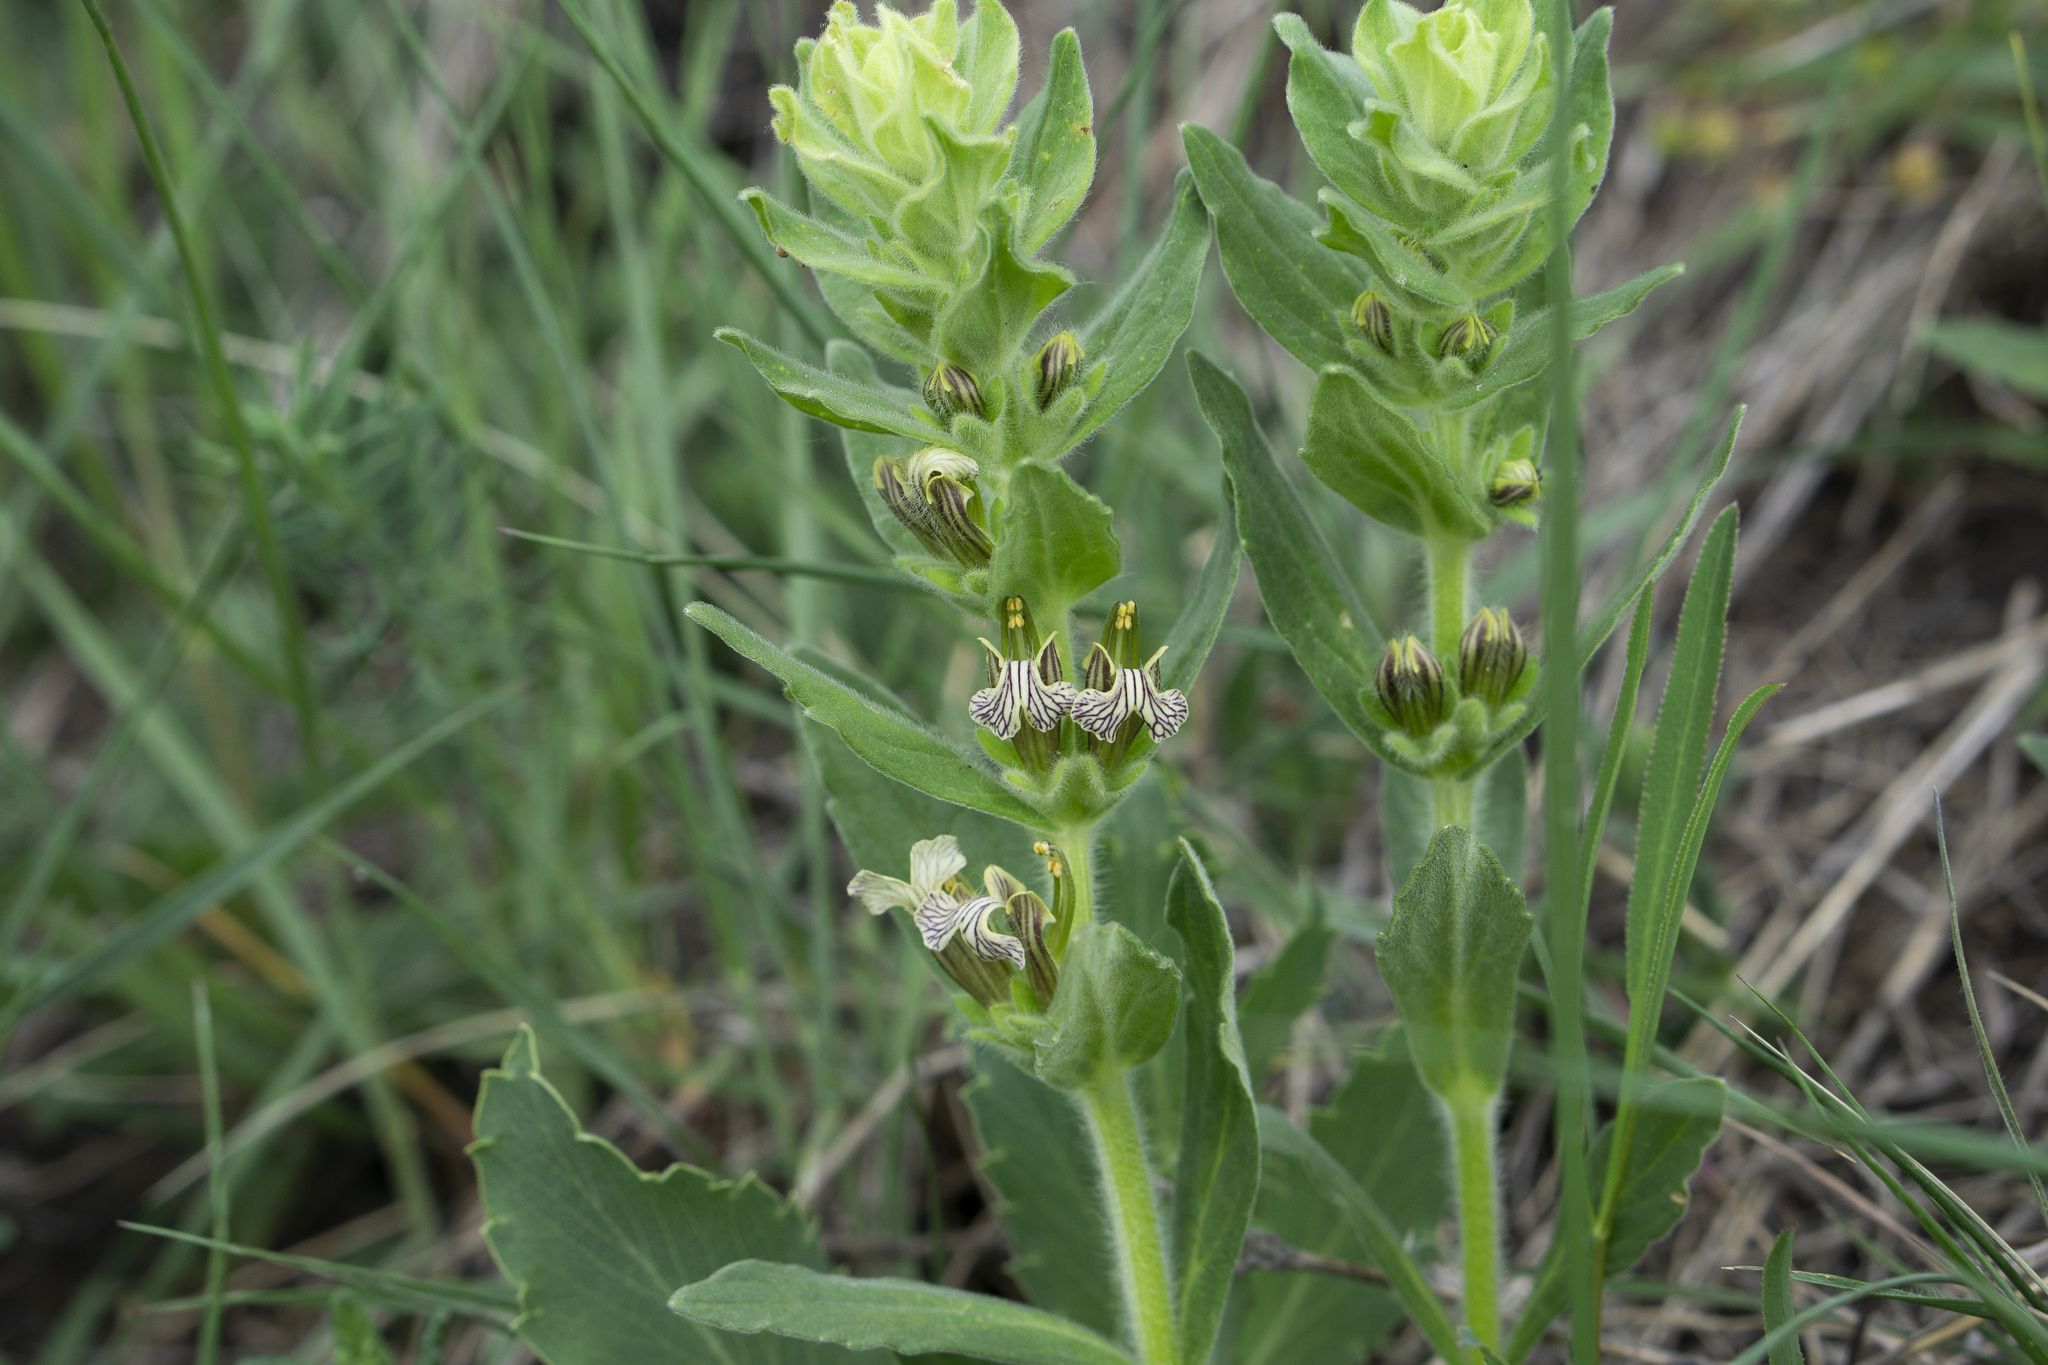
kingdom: Plantae
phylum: Tracheophyta
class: Magnoliopsida
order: Lamiales
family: Lamiaceae
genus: Ajuga
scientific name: Ajuga laxmannii
